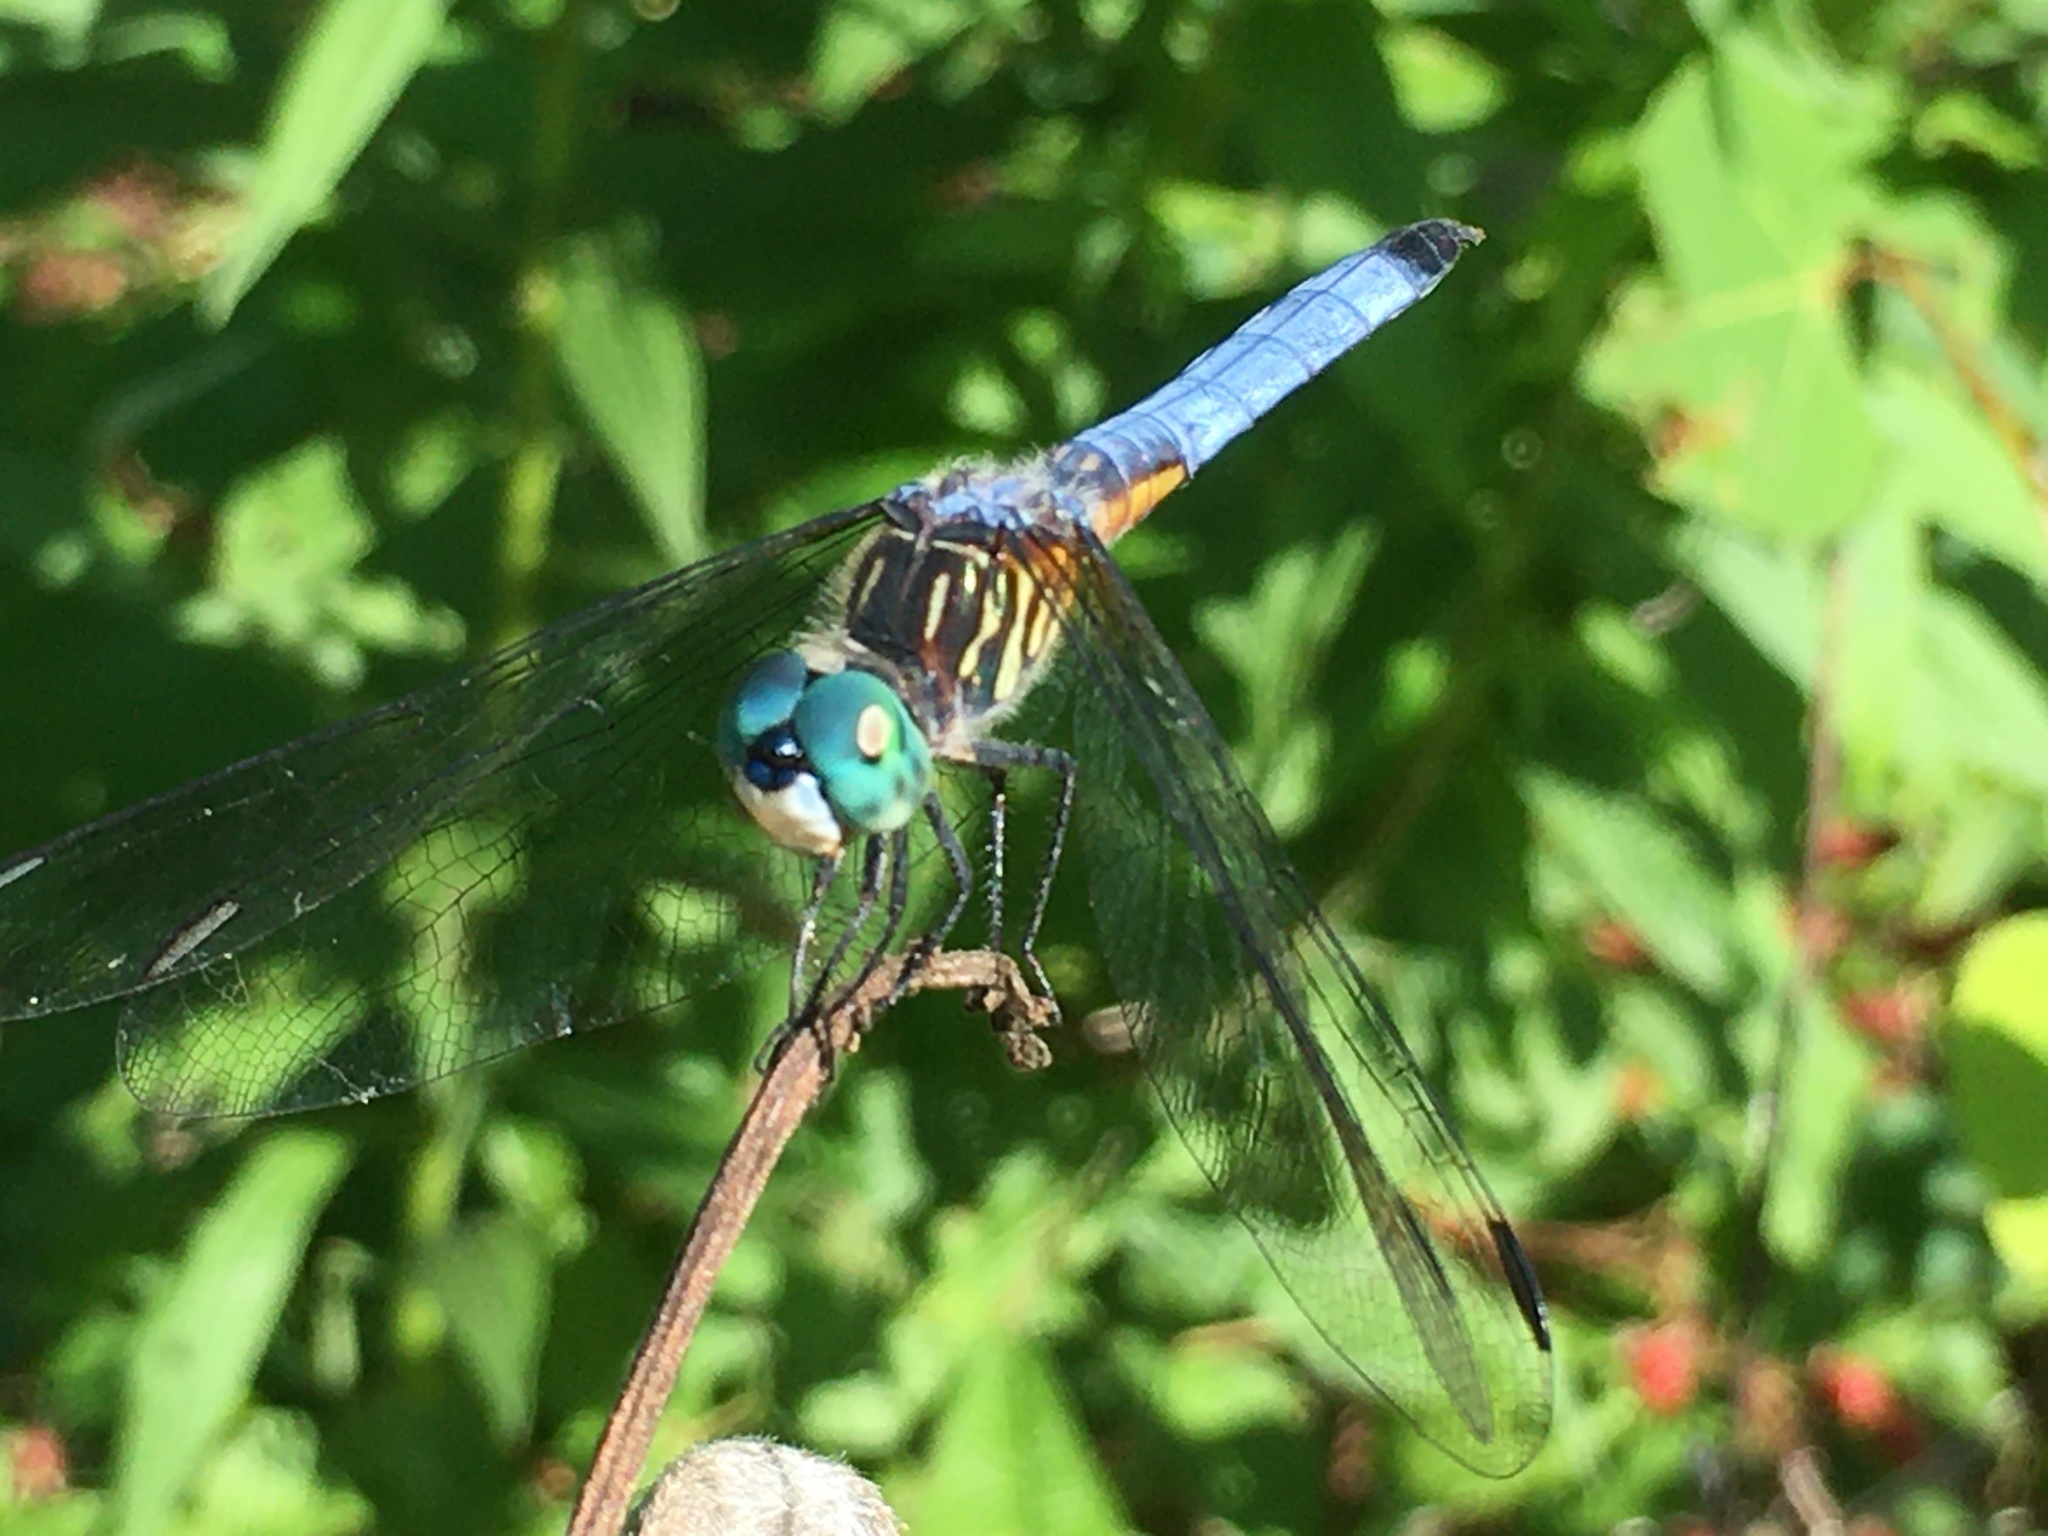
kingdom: Animalia
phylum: Arthropoda
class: Insecta
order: Odonata
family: Libellulidae
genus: Pachydiplax
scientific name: Pachydiplax longipennis
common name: Blue dasher
